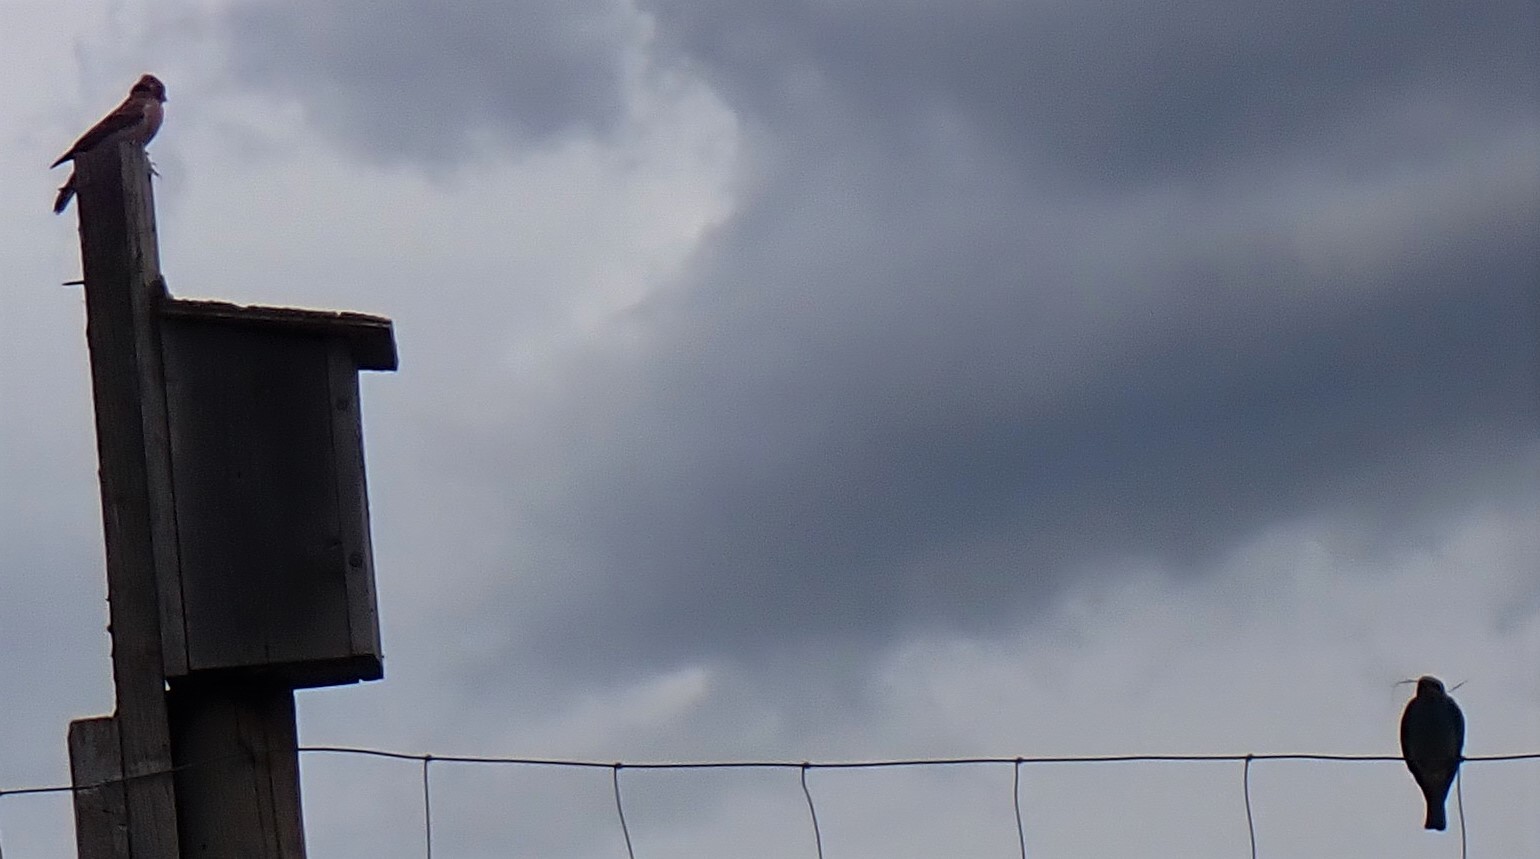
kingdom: Animalia
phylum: Chordata
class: Aves
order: Passeriformes
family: Turdidae
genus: Sialia
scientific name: Sialia currucoides
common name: Mountain bluebird
